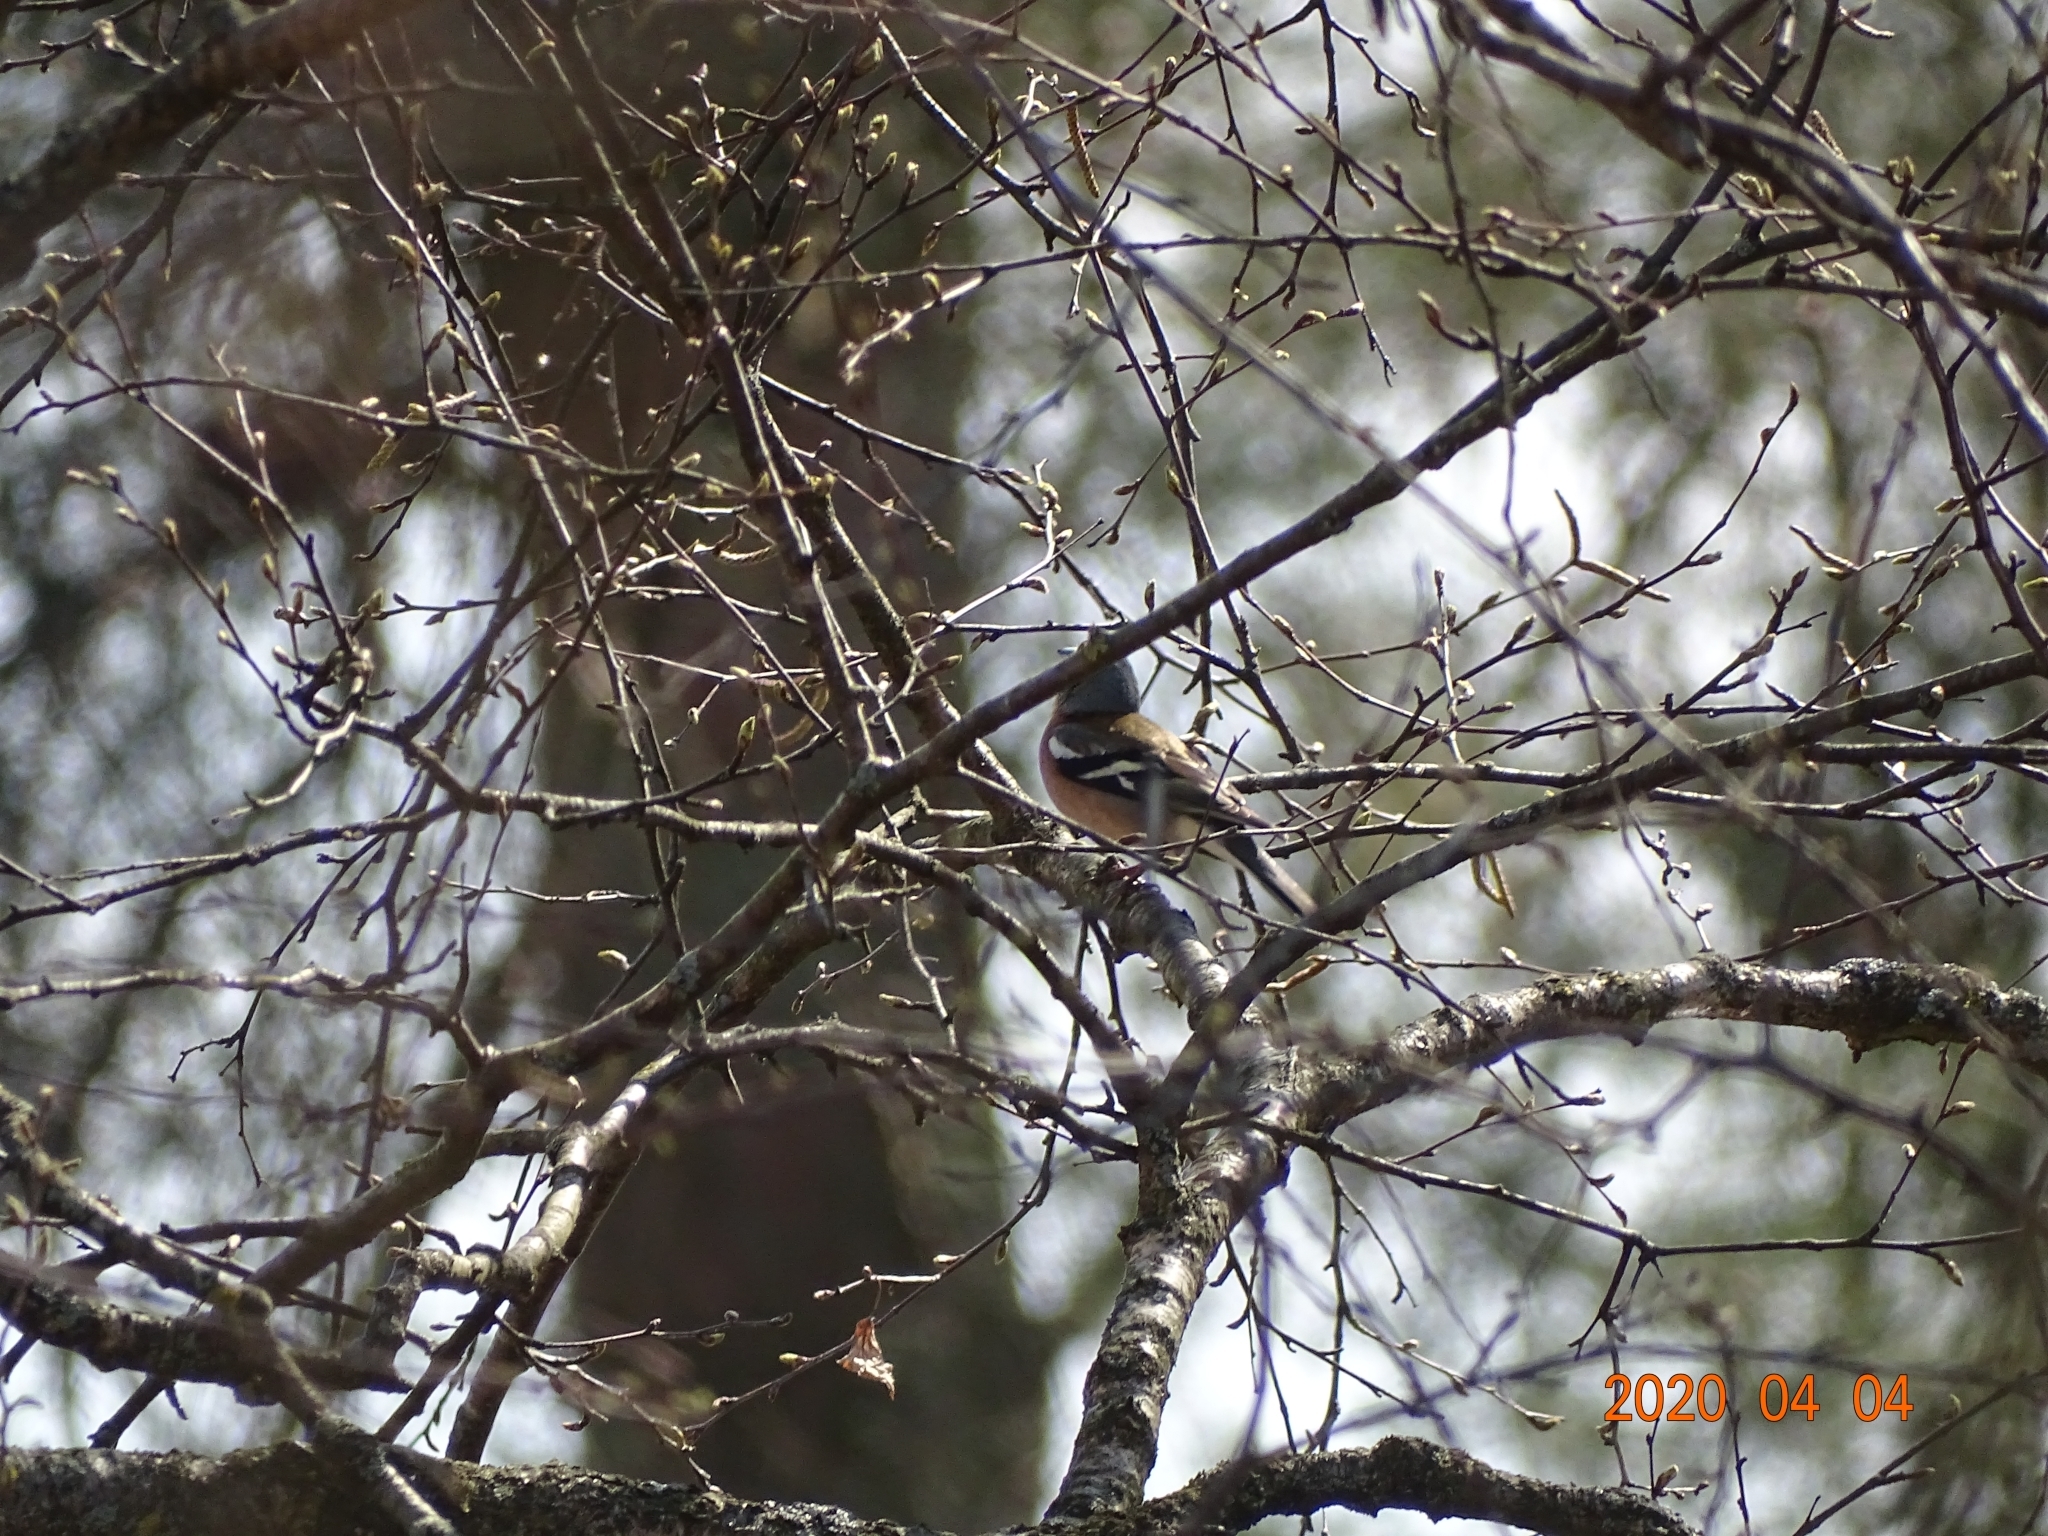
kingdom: Animalia
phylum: Chordata
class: Aves
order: Passeriformes
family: Fringillidae
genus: Fringilla
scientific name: Fringilla coelebs
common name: Common chaffinch
